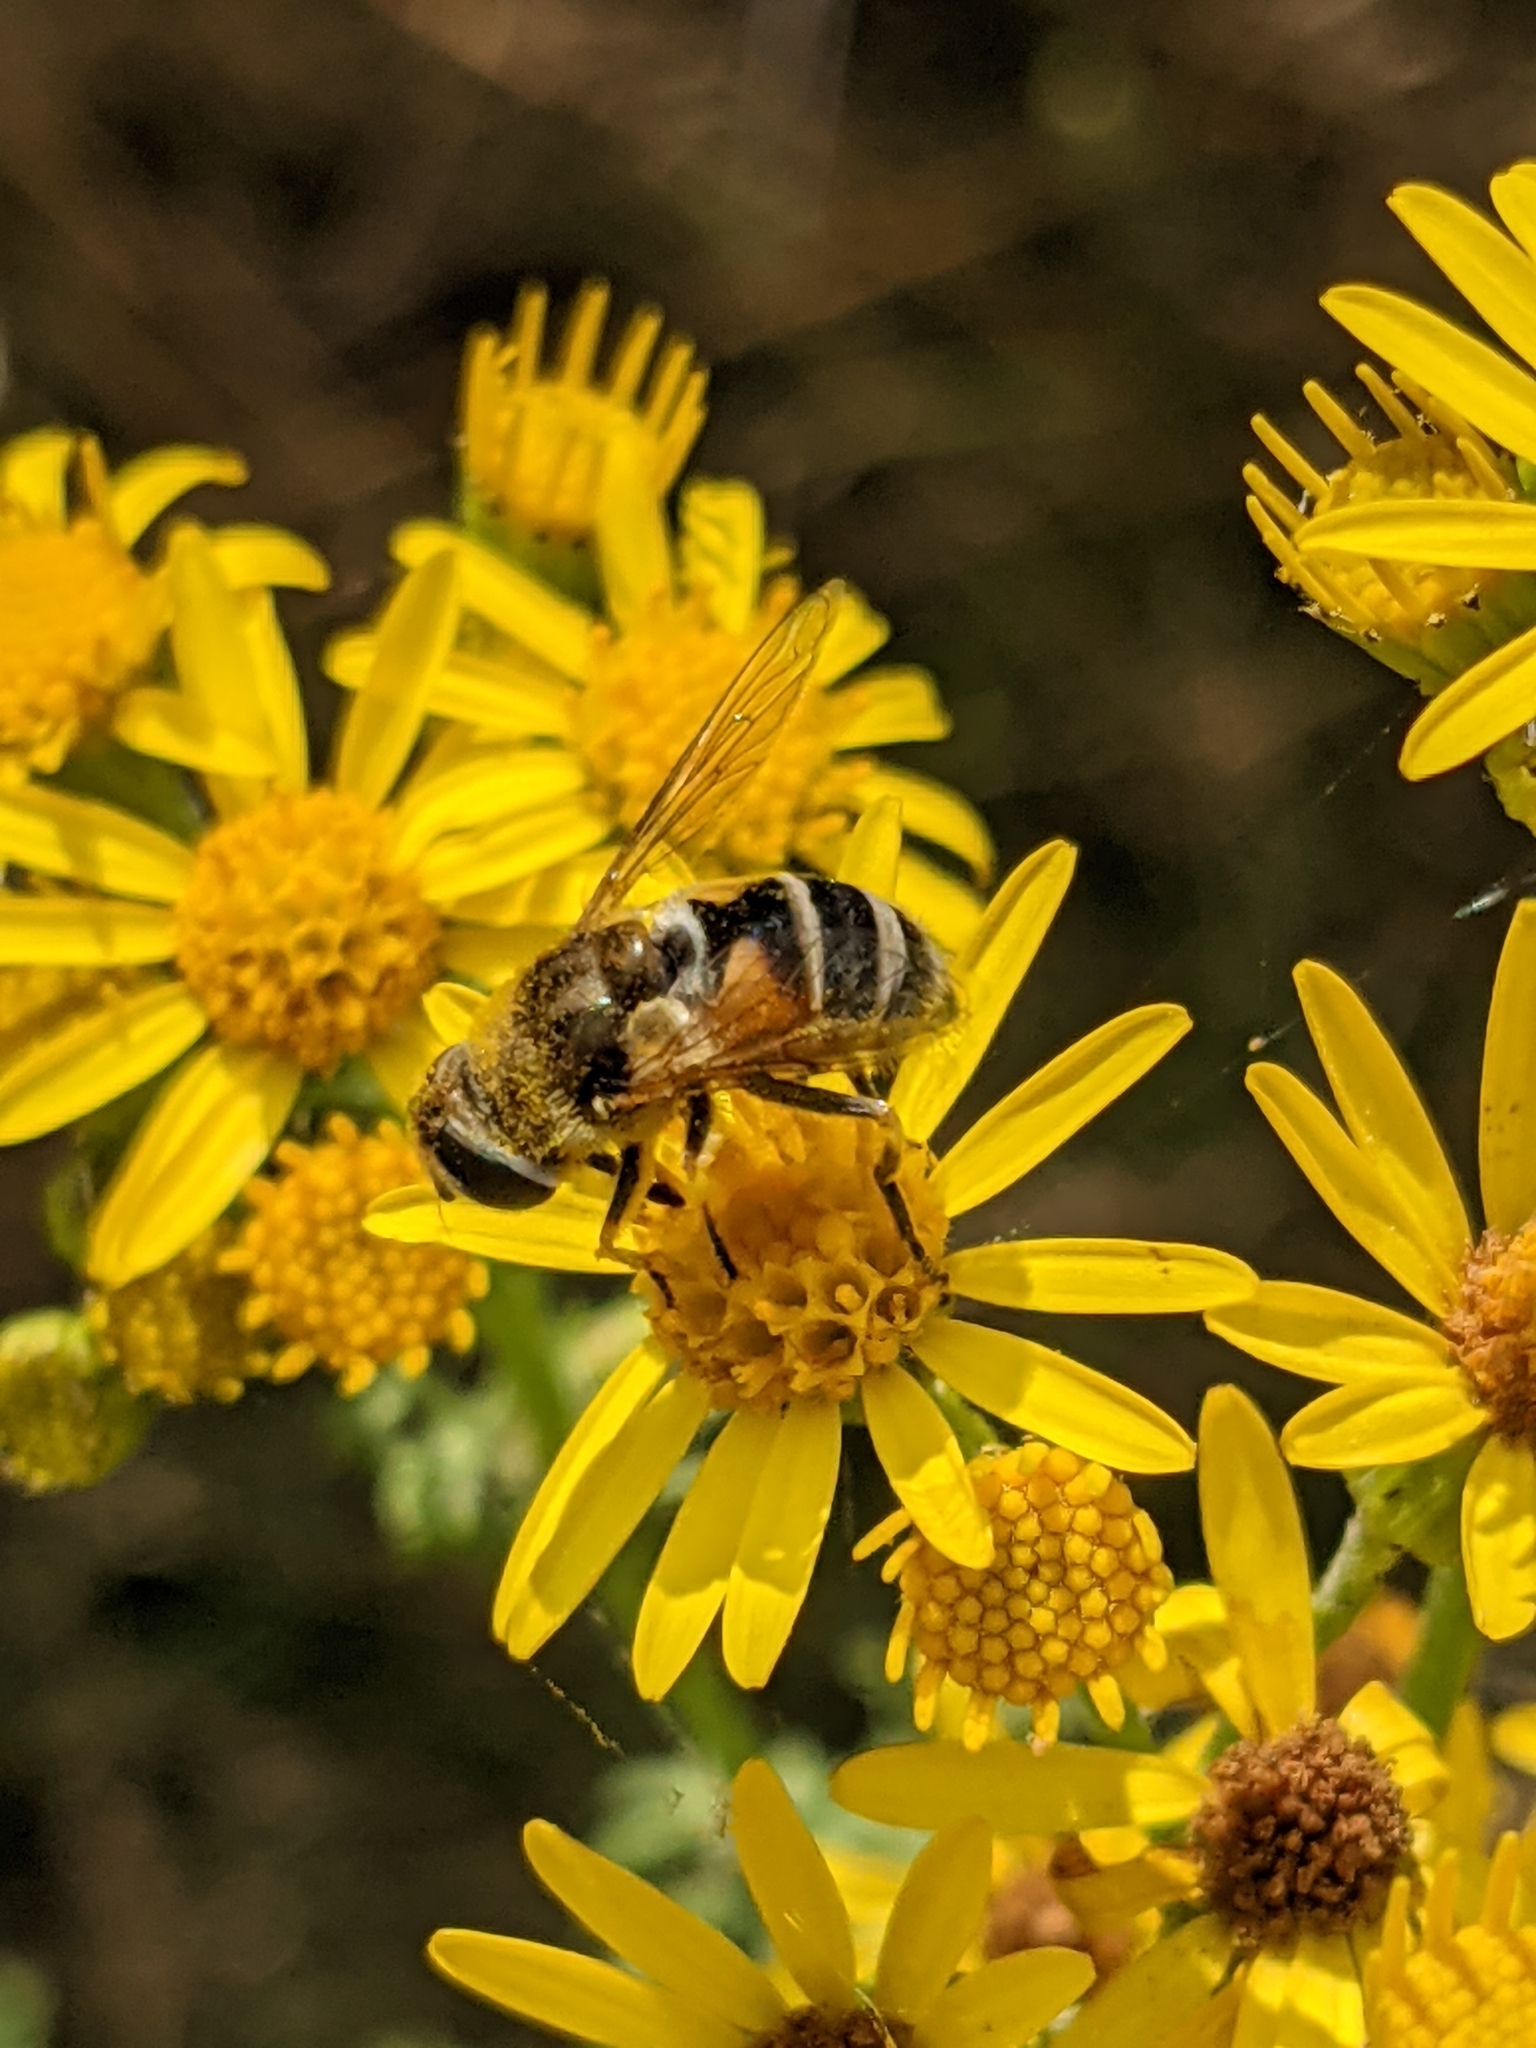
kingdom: Animalia
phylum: Arthropoda
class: Insecta
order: Diptera
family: Syrphidae
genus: Eristalis
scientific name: Eristalis arbustorum
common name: Hover fly
